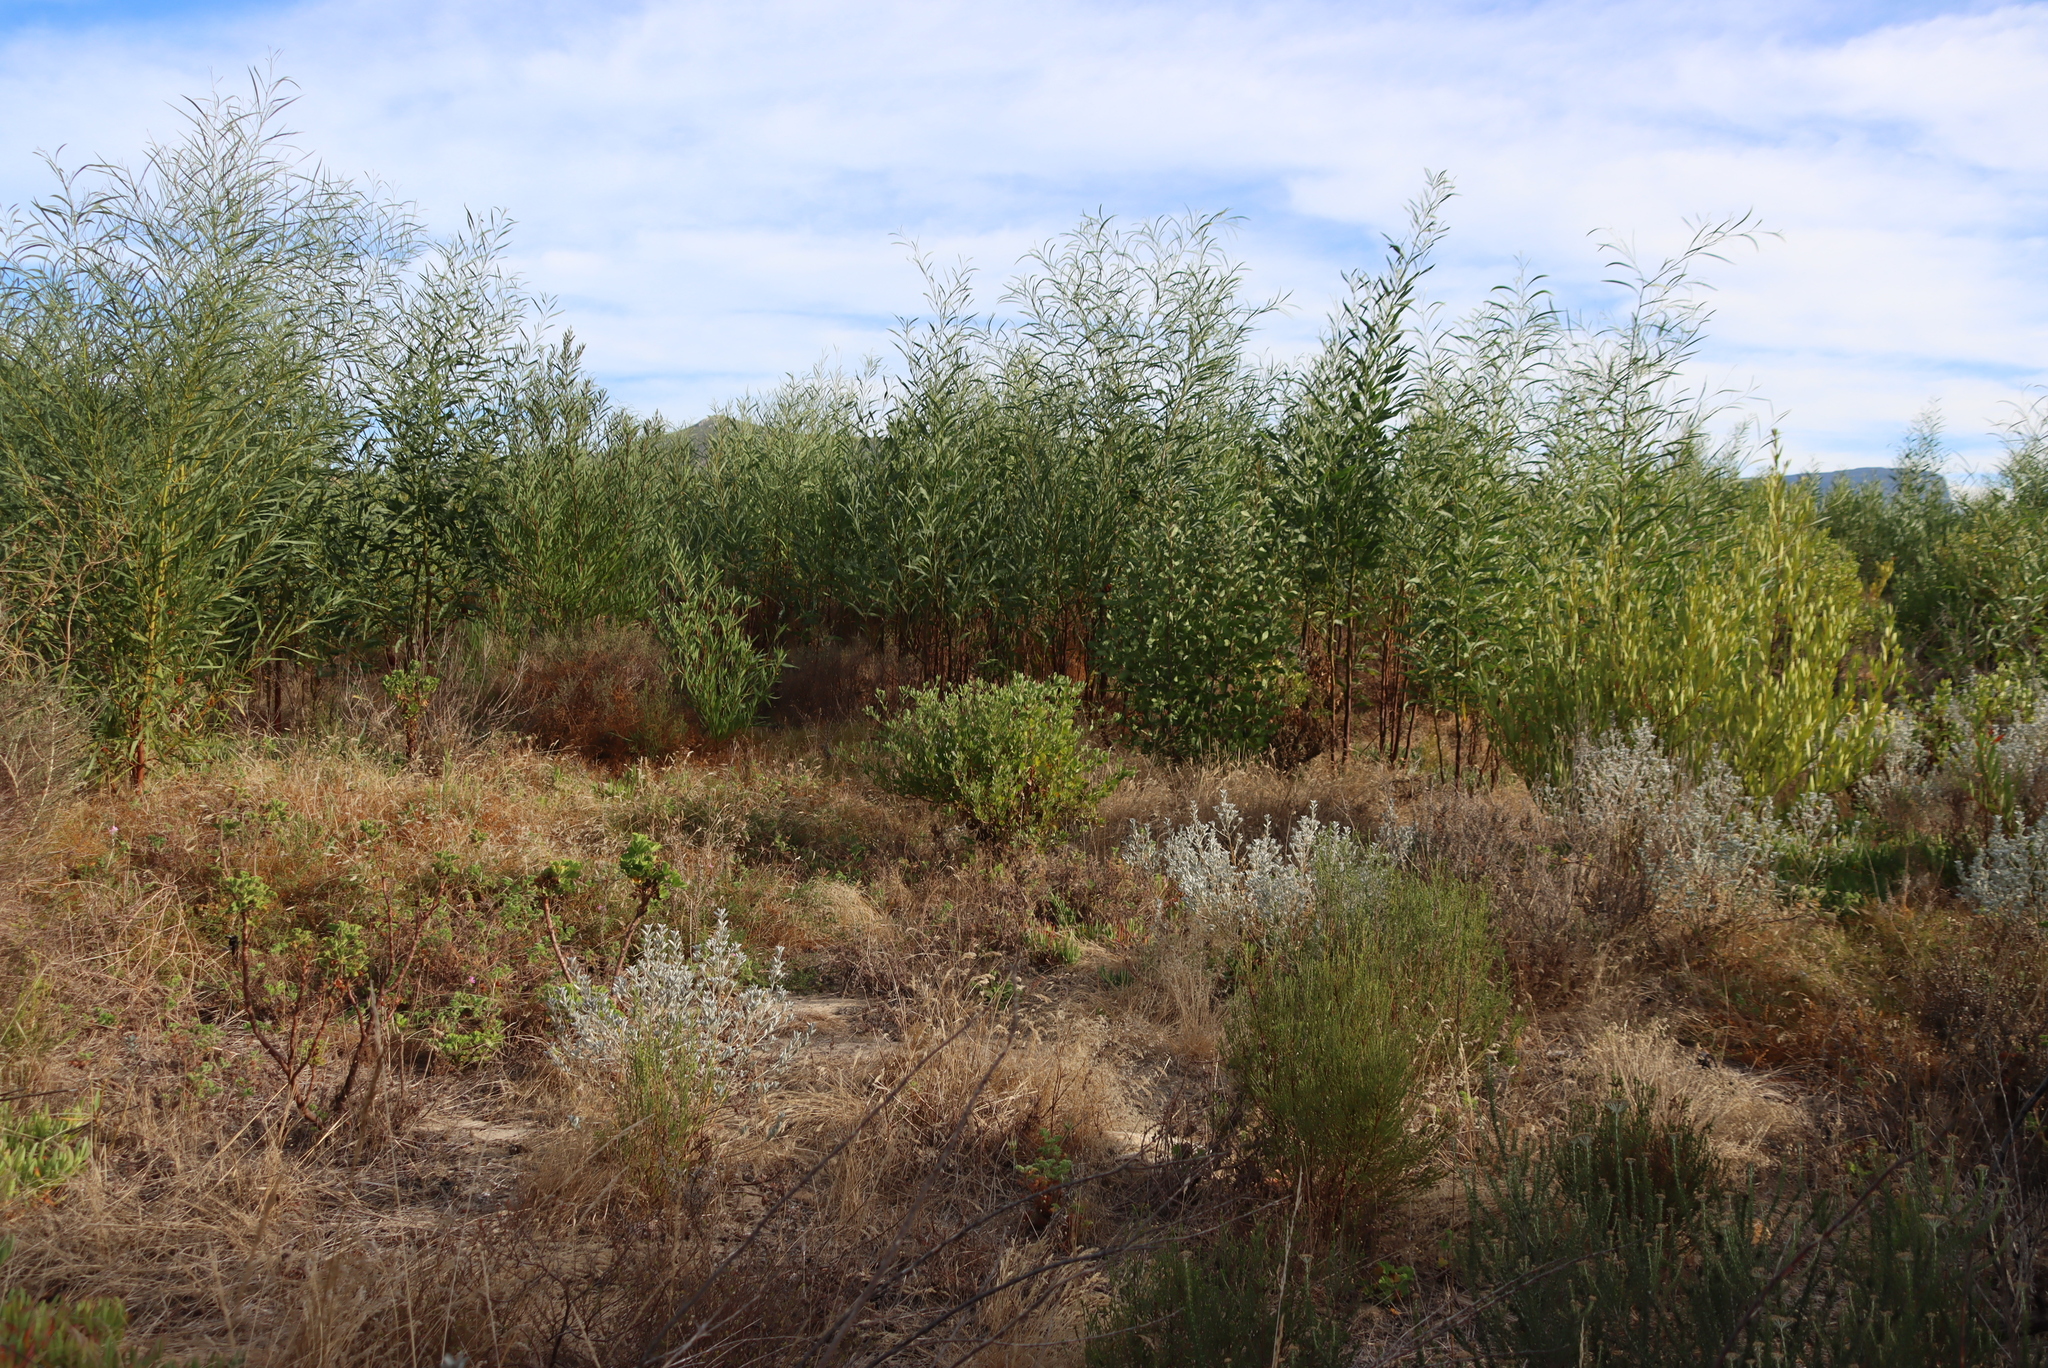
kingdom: Plantae
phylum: Tracheophyta
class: Magnoliopsida
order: Fabales
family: Fabaceae
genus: Podalyria
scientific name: Podalyria sericea
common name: Silver podalyria
